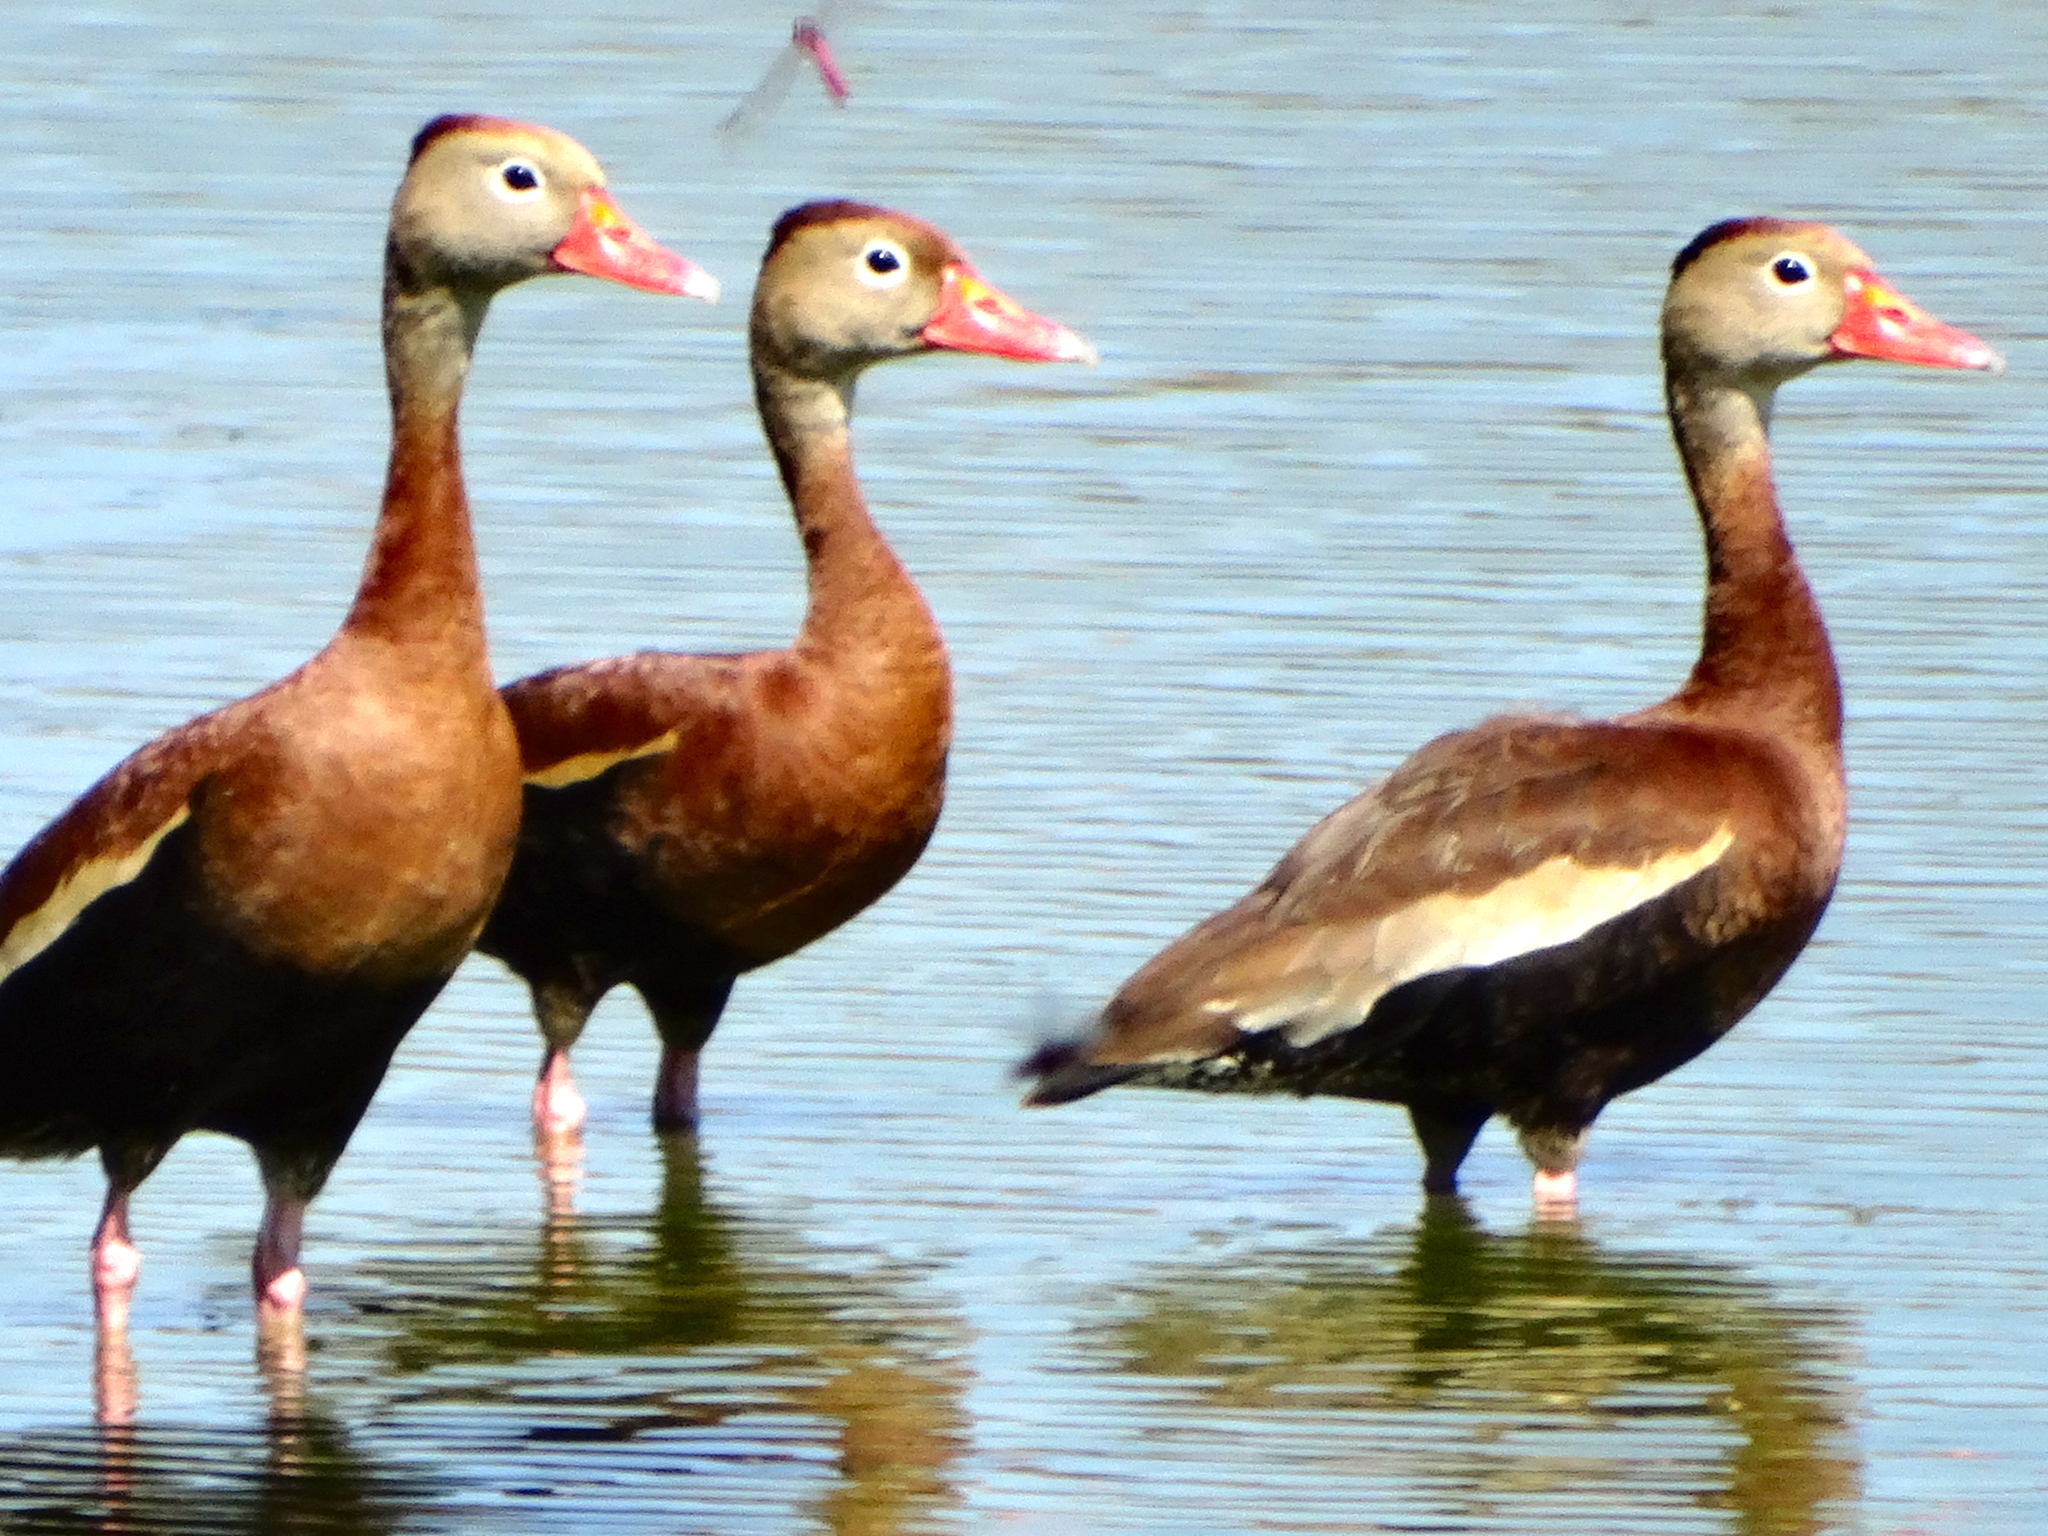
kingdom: Animalia
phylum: Chordata
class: Aves
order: Anseriformes
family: Anatidae
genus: Dendrocygna
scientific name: Dendrocygna autumnalis
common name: Black-bellied whistling duck
